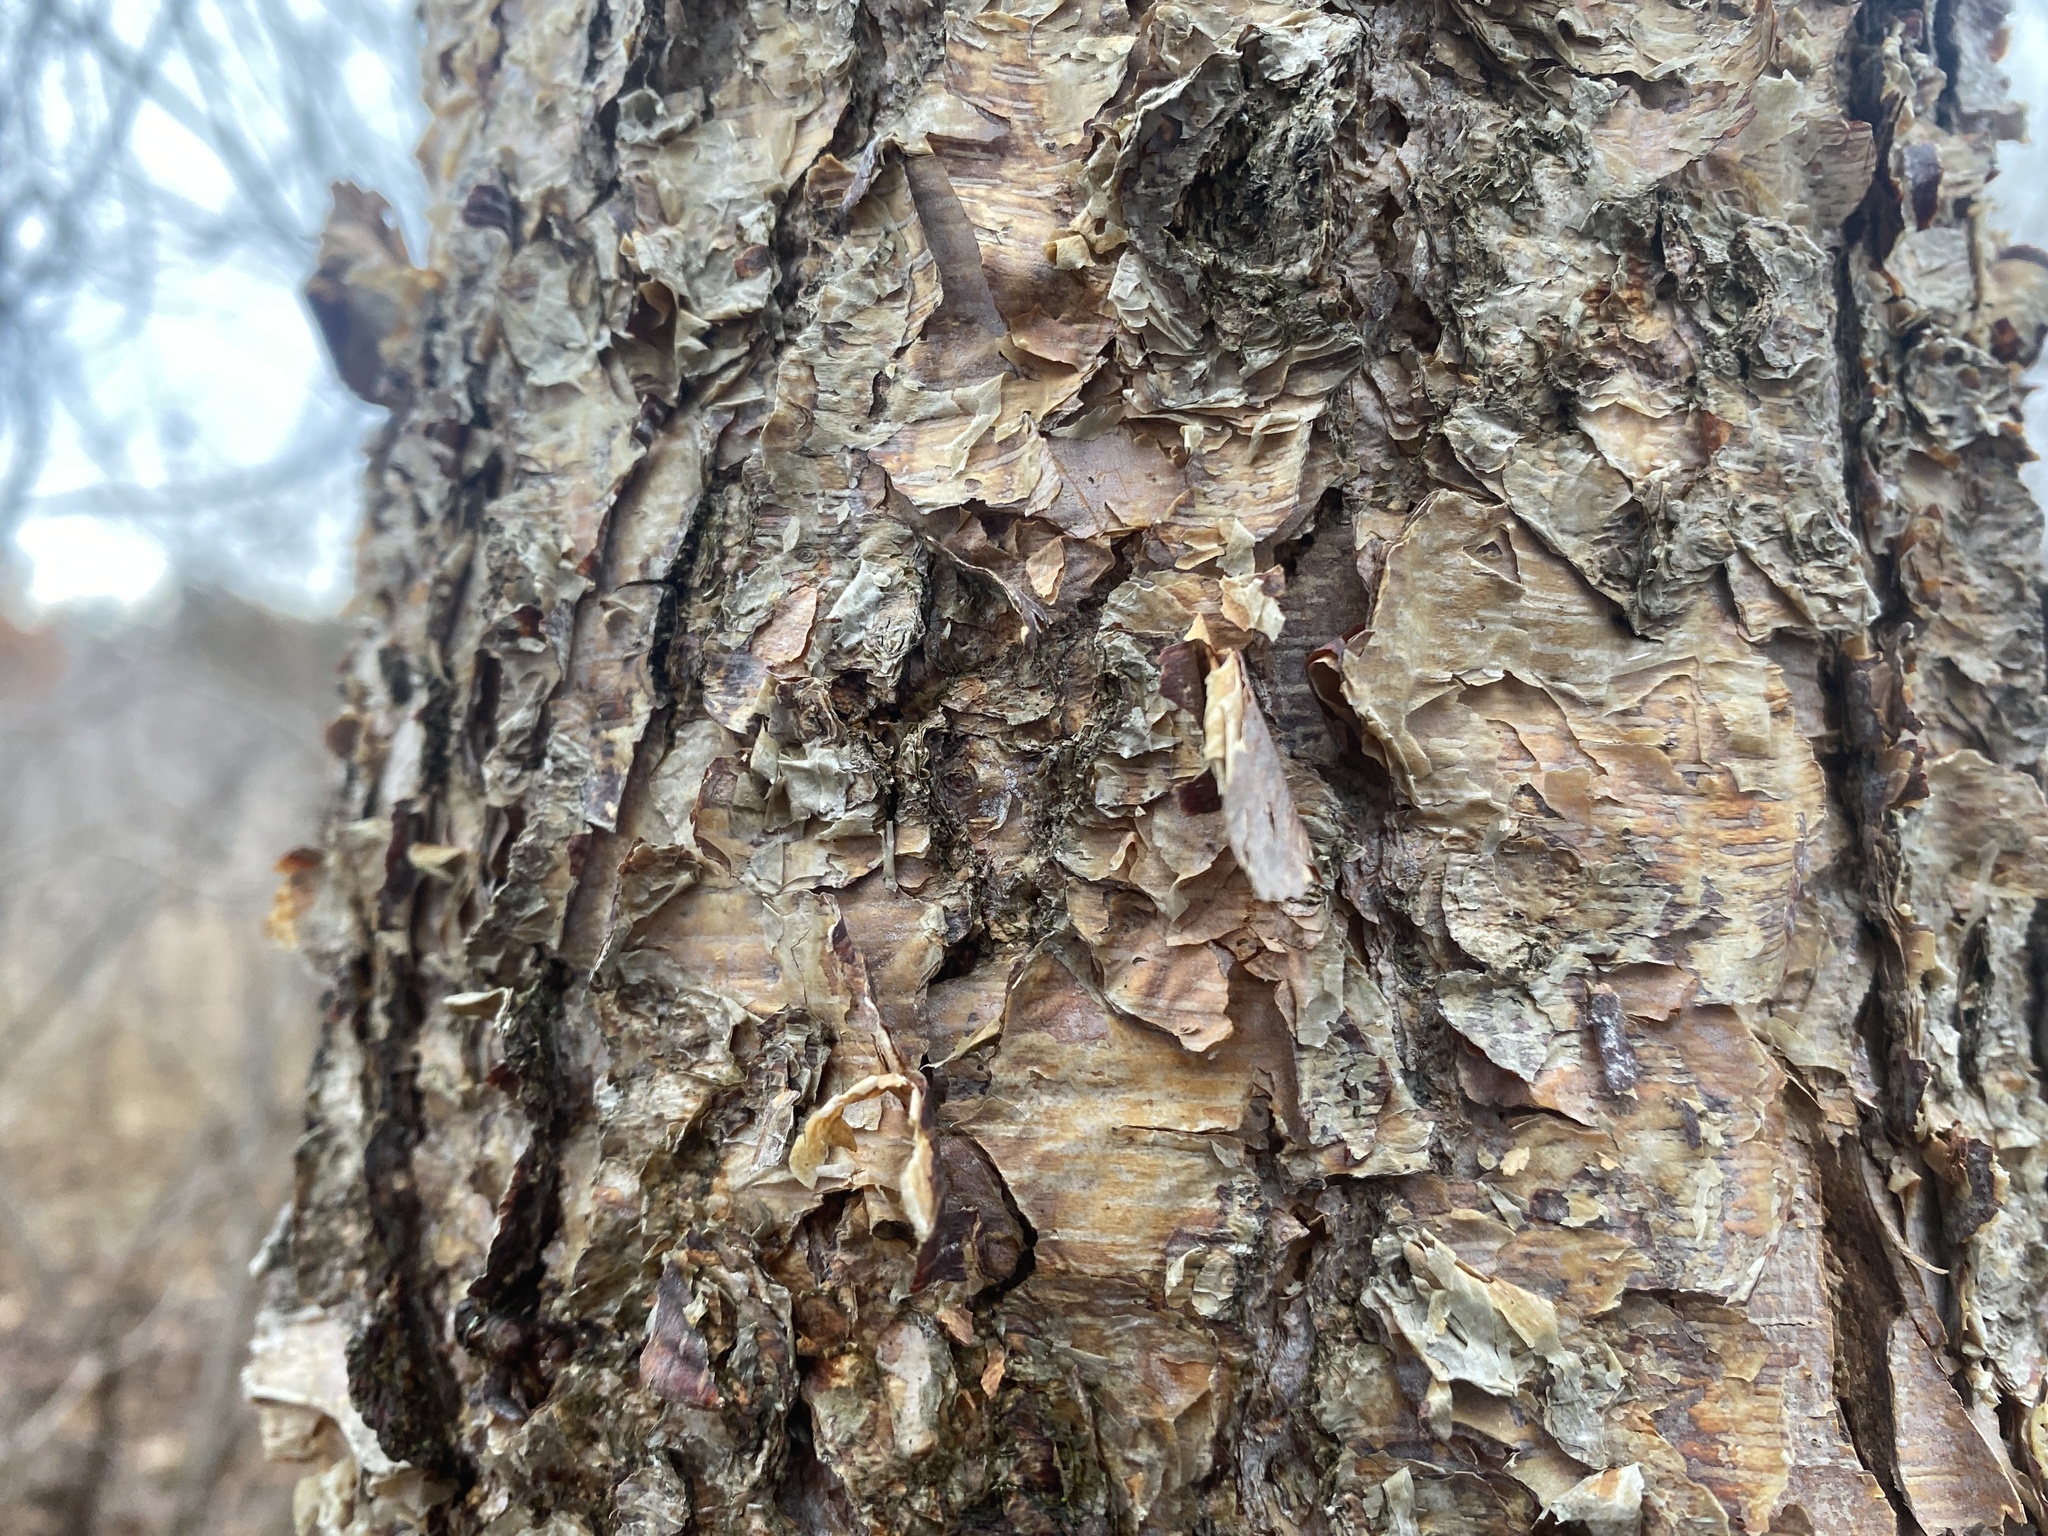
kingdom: Plantae
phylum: Tracheophyta
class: Magnoliopsida
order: Fagales
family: Betulaceae
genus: Betula
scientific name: Betula nigra
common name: Black birch
